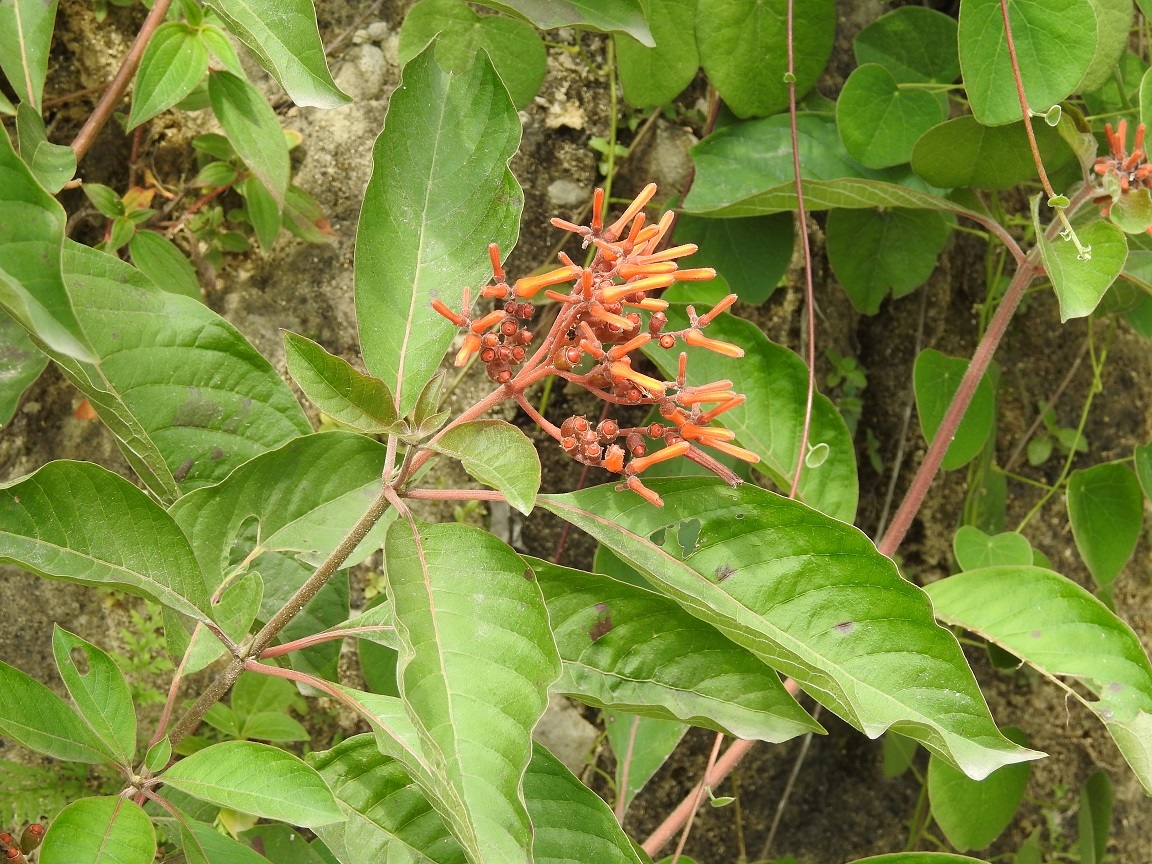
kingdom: Plantae
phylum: Tracheophyta
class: Magnoliopsida
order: Gentianales
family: Rubiaceae
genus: Hamelia
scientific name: Hamelia patens
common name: Redhead
